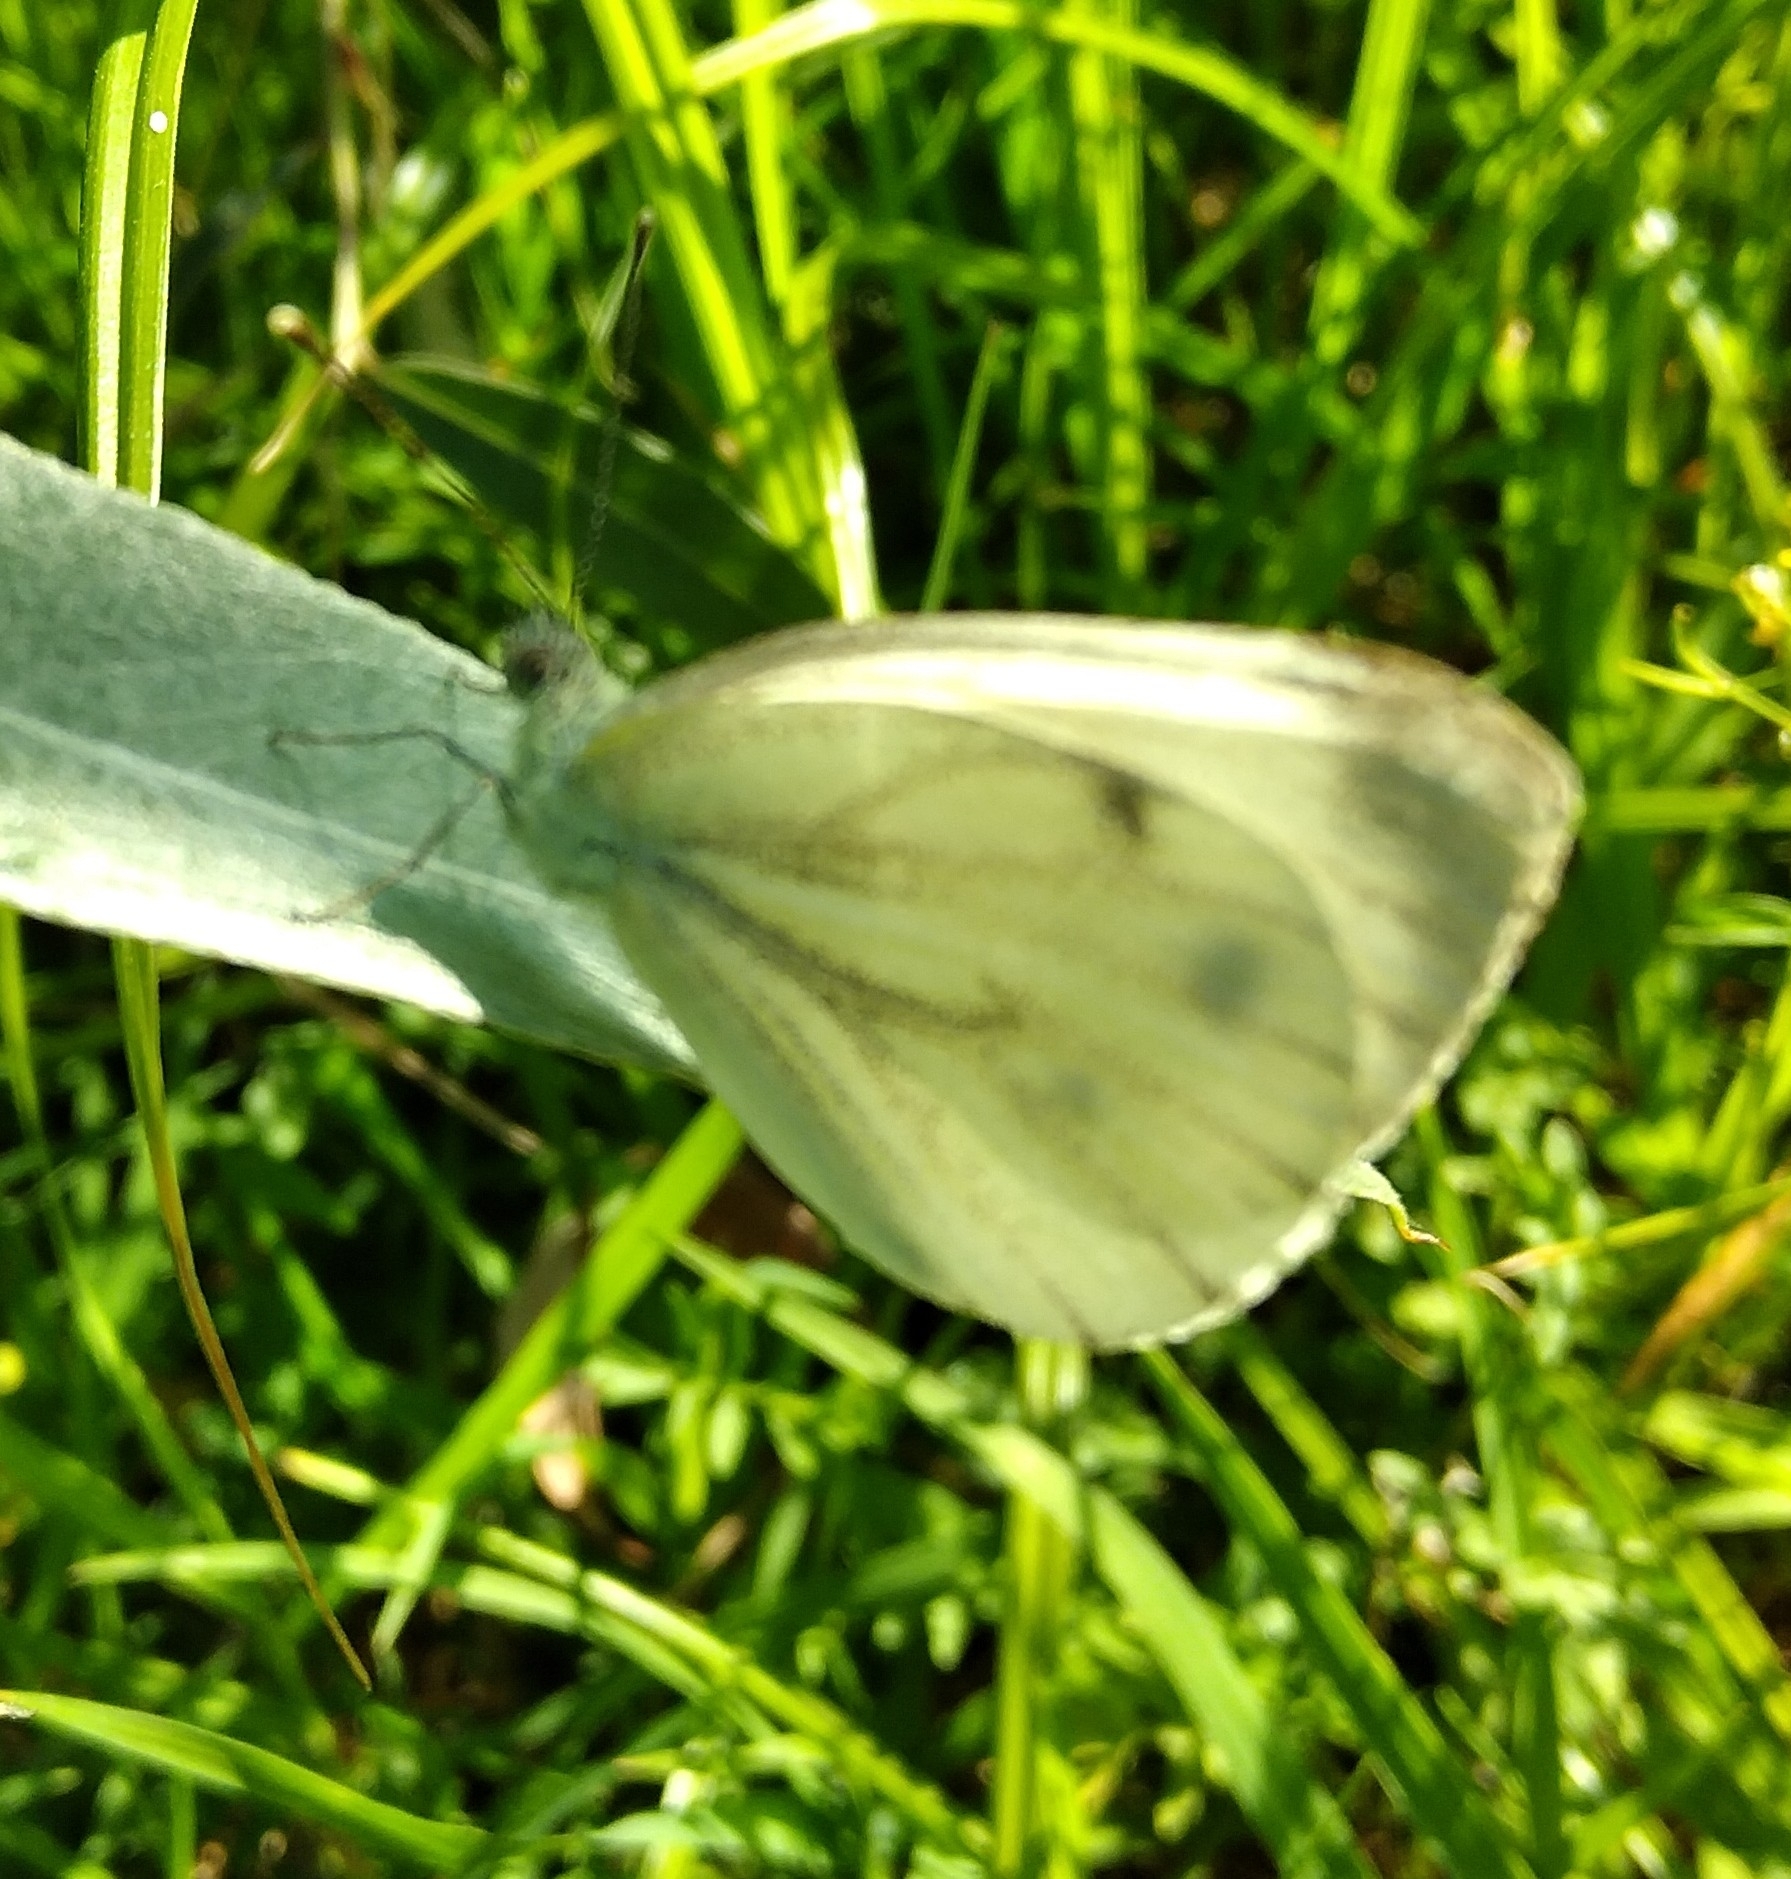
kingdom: Animalia
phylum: Arthropoda
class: Insecta
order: Lepidoptera
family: Pieridae
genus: Pieris
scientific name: Pieris napi
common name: Green-veined white
